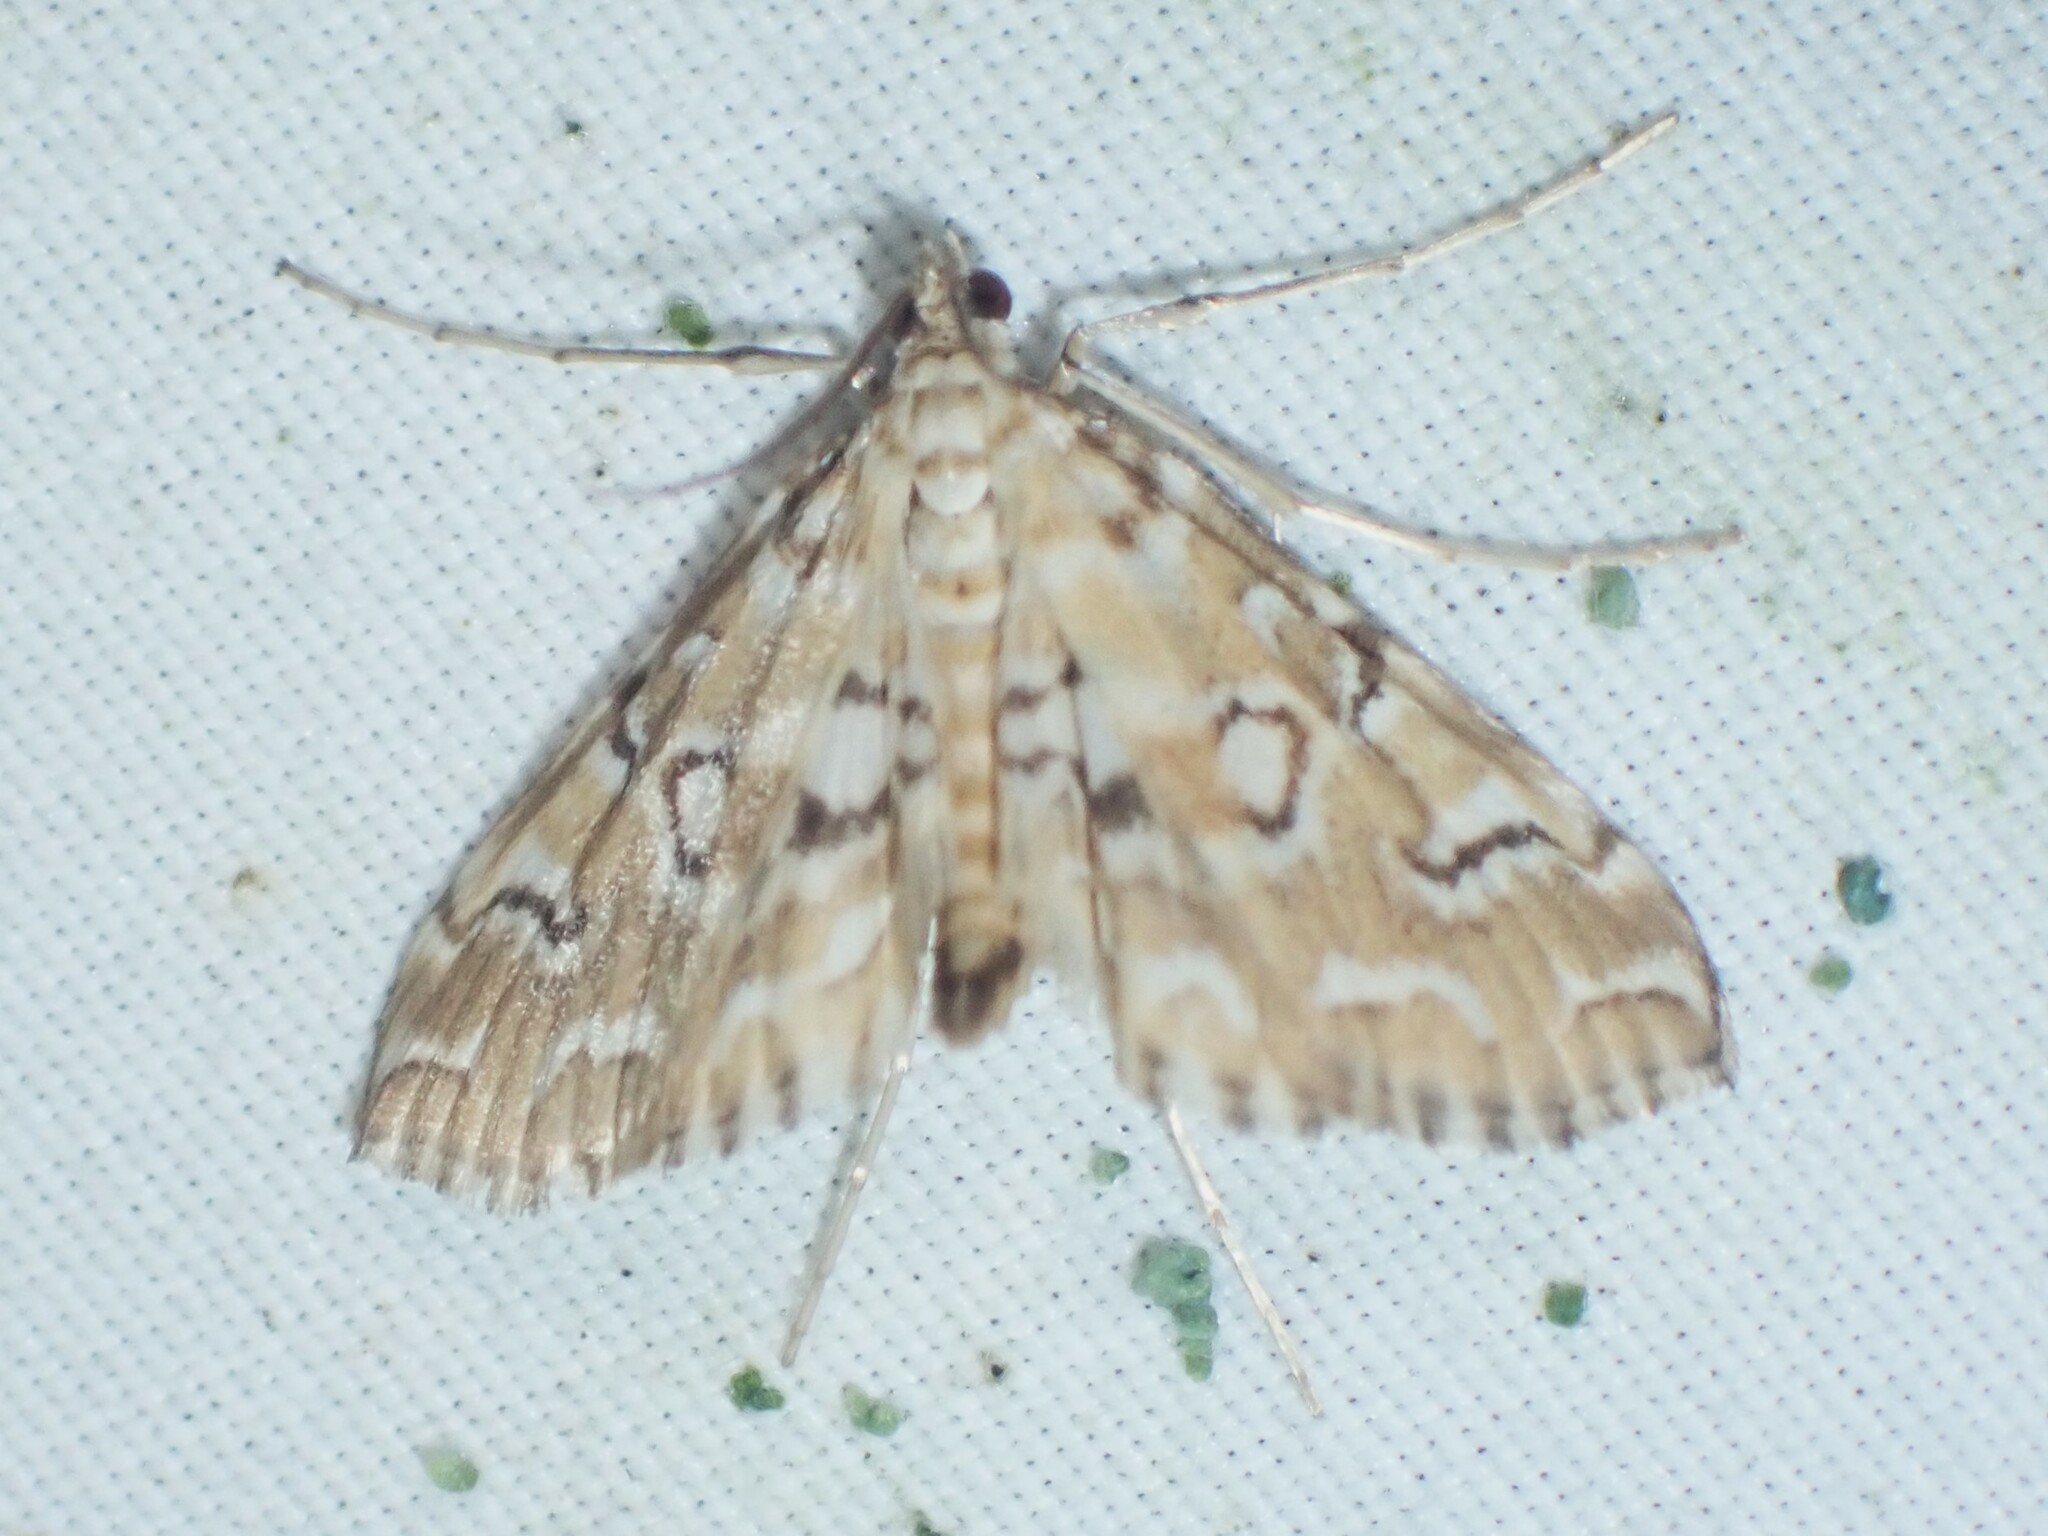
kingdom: Animalia
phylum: Arthropoda
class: Insecta
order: Lepidoptera
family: Crambidae
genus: Elophila
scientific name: Elophila icciusalis
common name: Pondside pyralid moth
